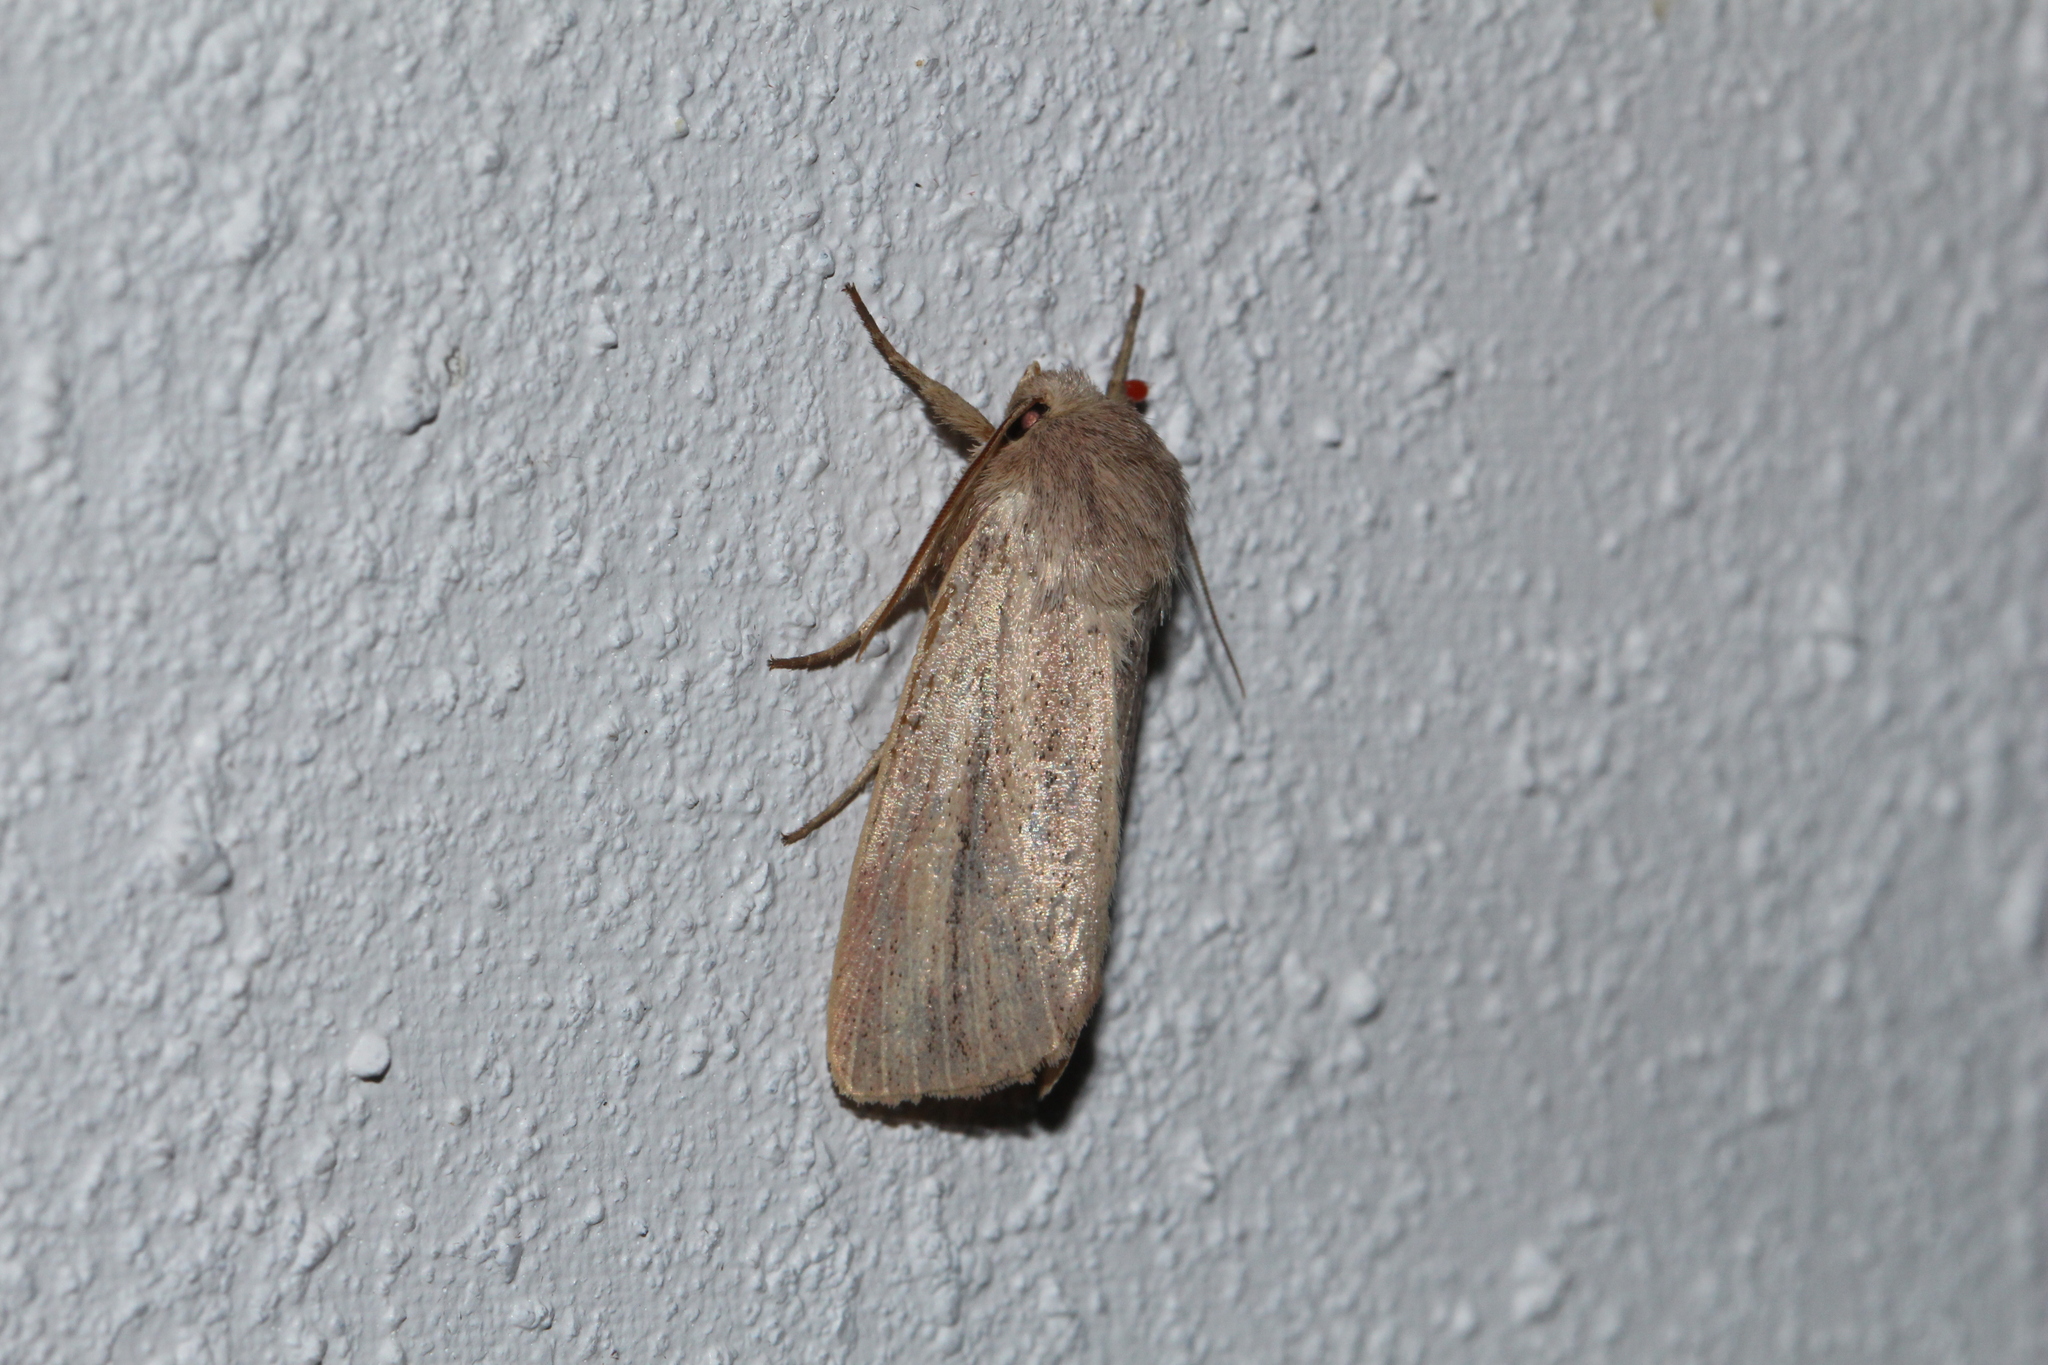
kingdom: Animalia
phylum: Arthropoda
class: Insecta
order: Lepidoptera
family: Noctuidae
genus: Mythimna
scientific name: Mythimna pudorina
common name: Striped wainscot
